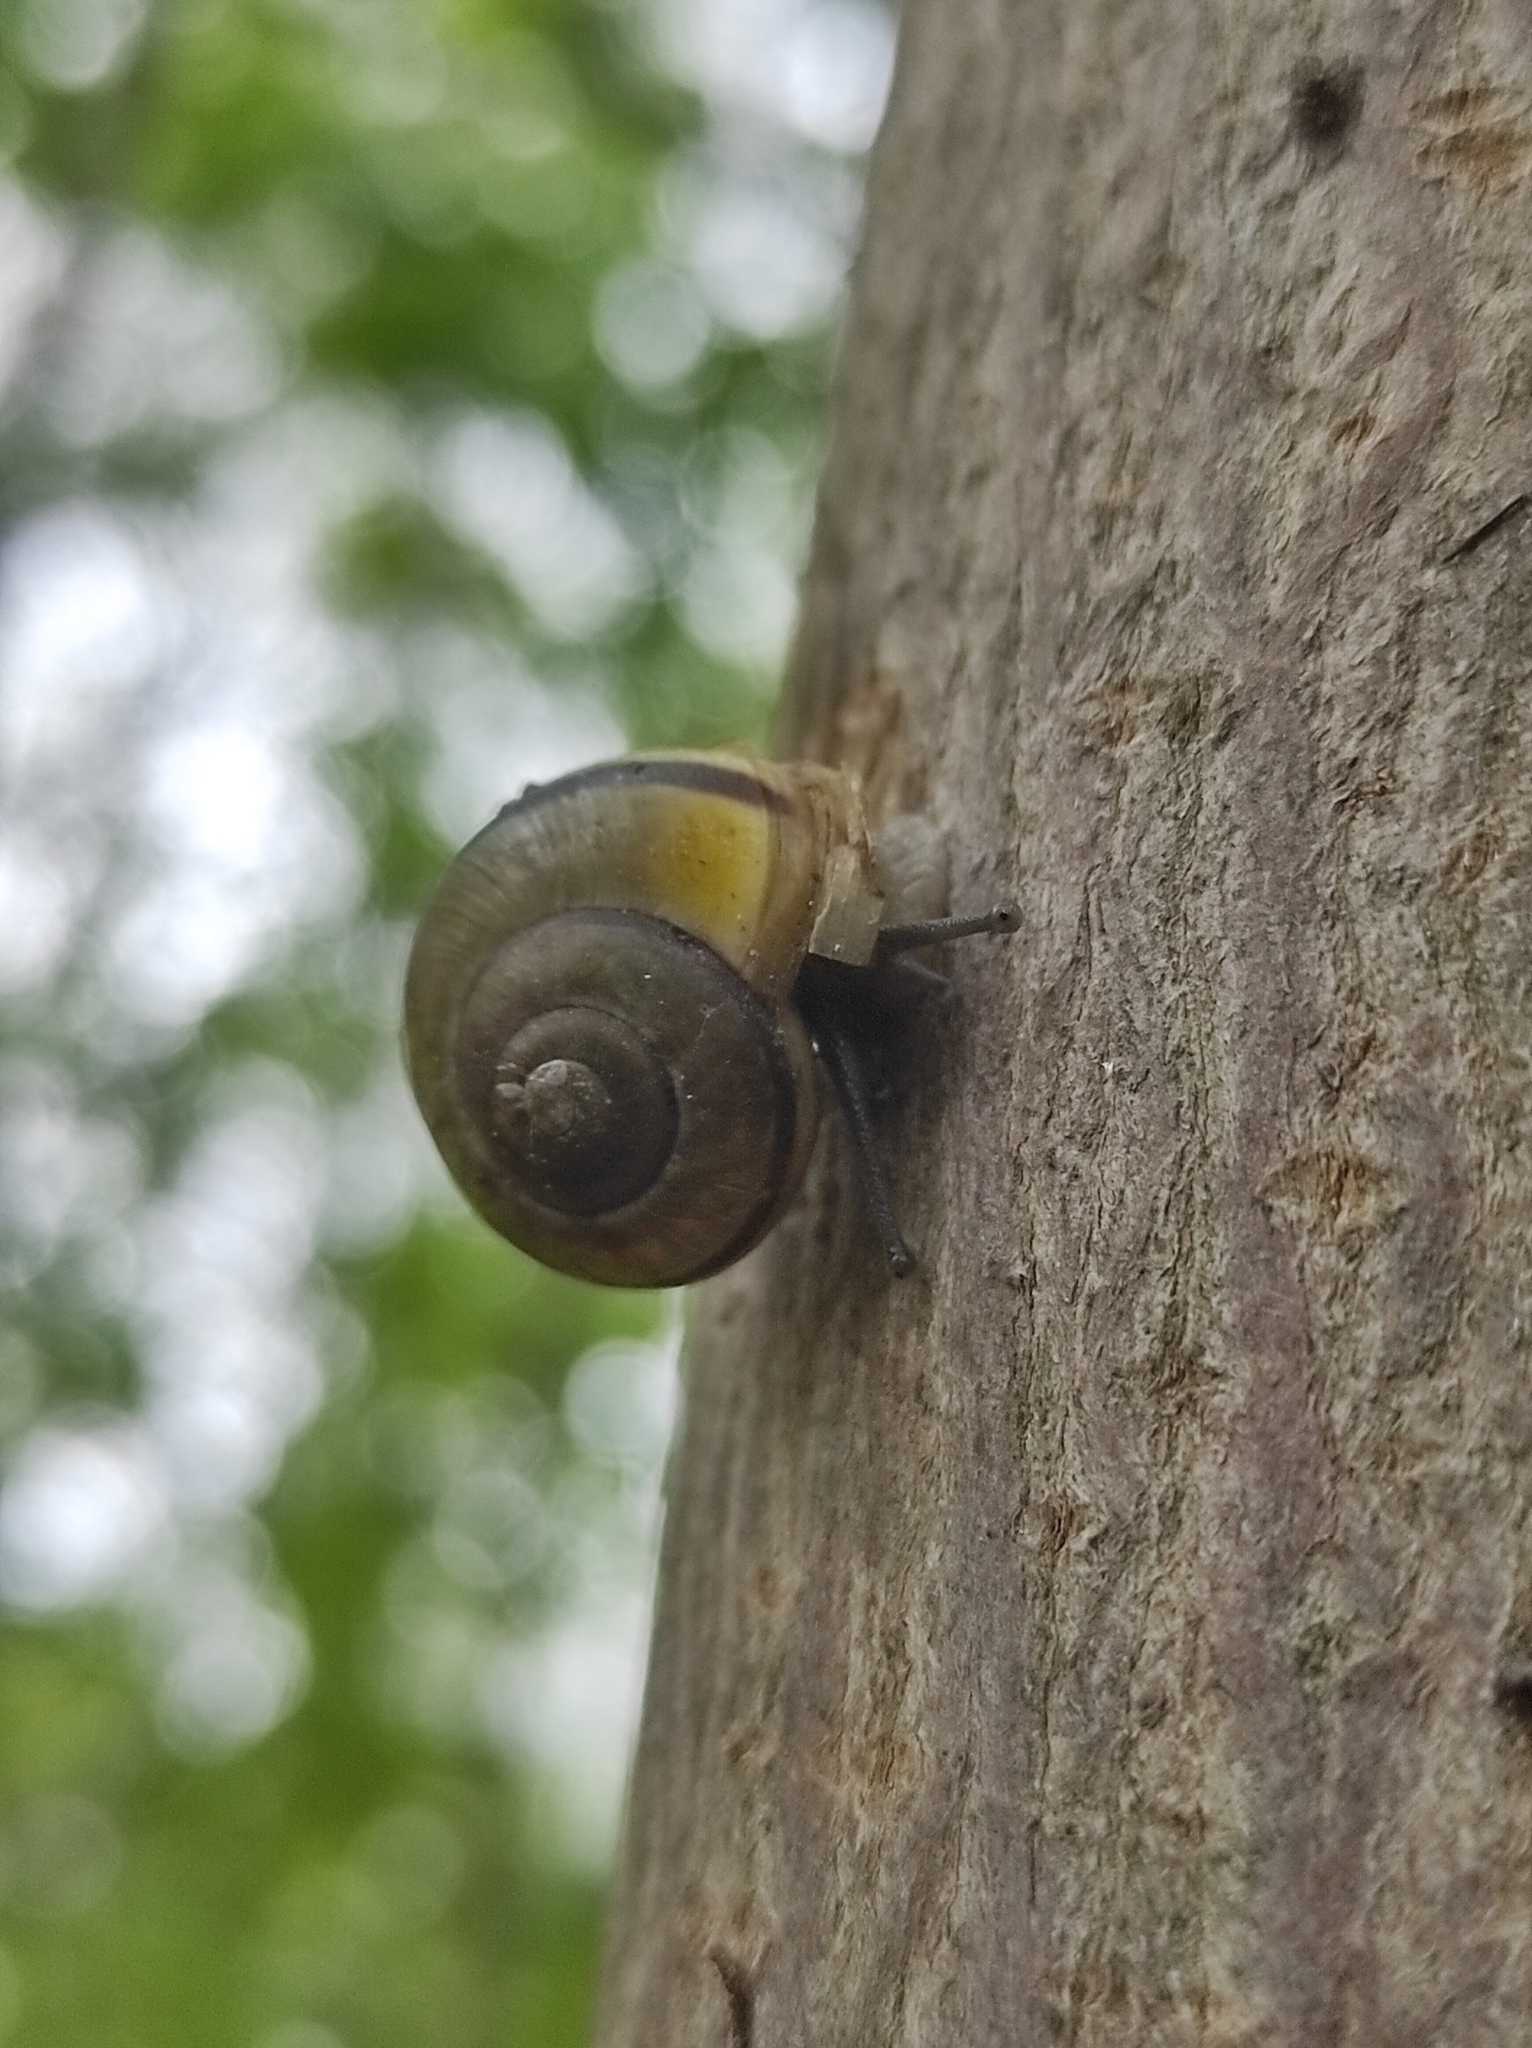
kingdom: Animalia
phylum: Mollusca
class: Gastropoda
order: Stylommatophora
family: Helicidae
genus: Cepaea
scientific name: Cepaea
